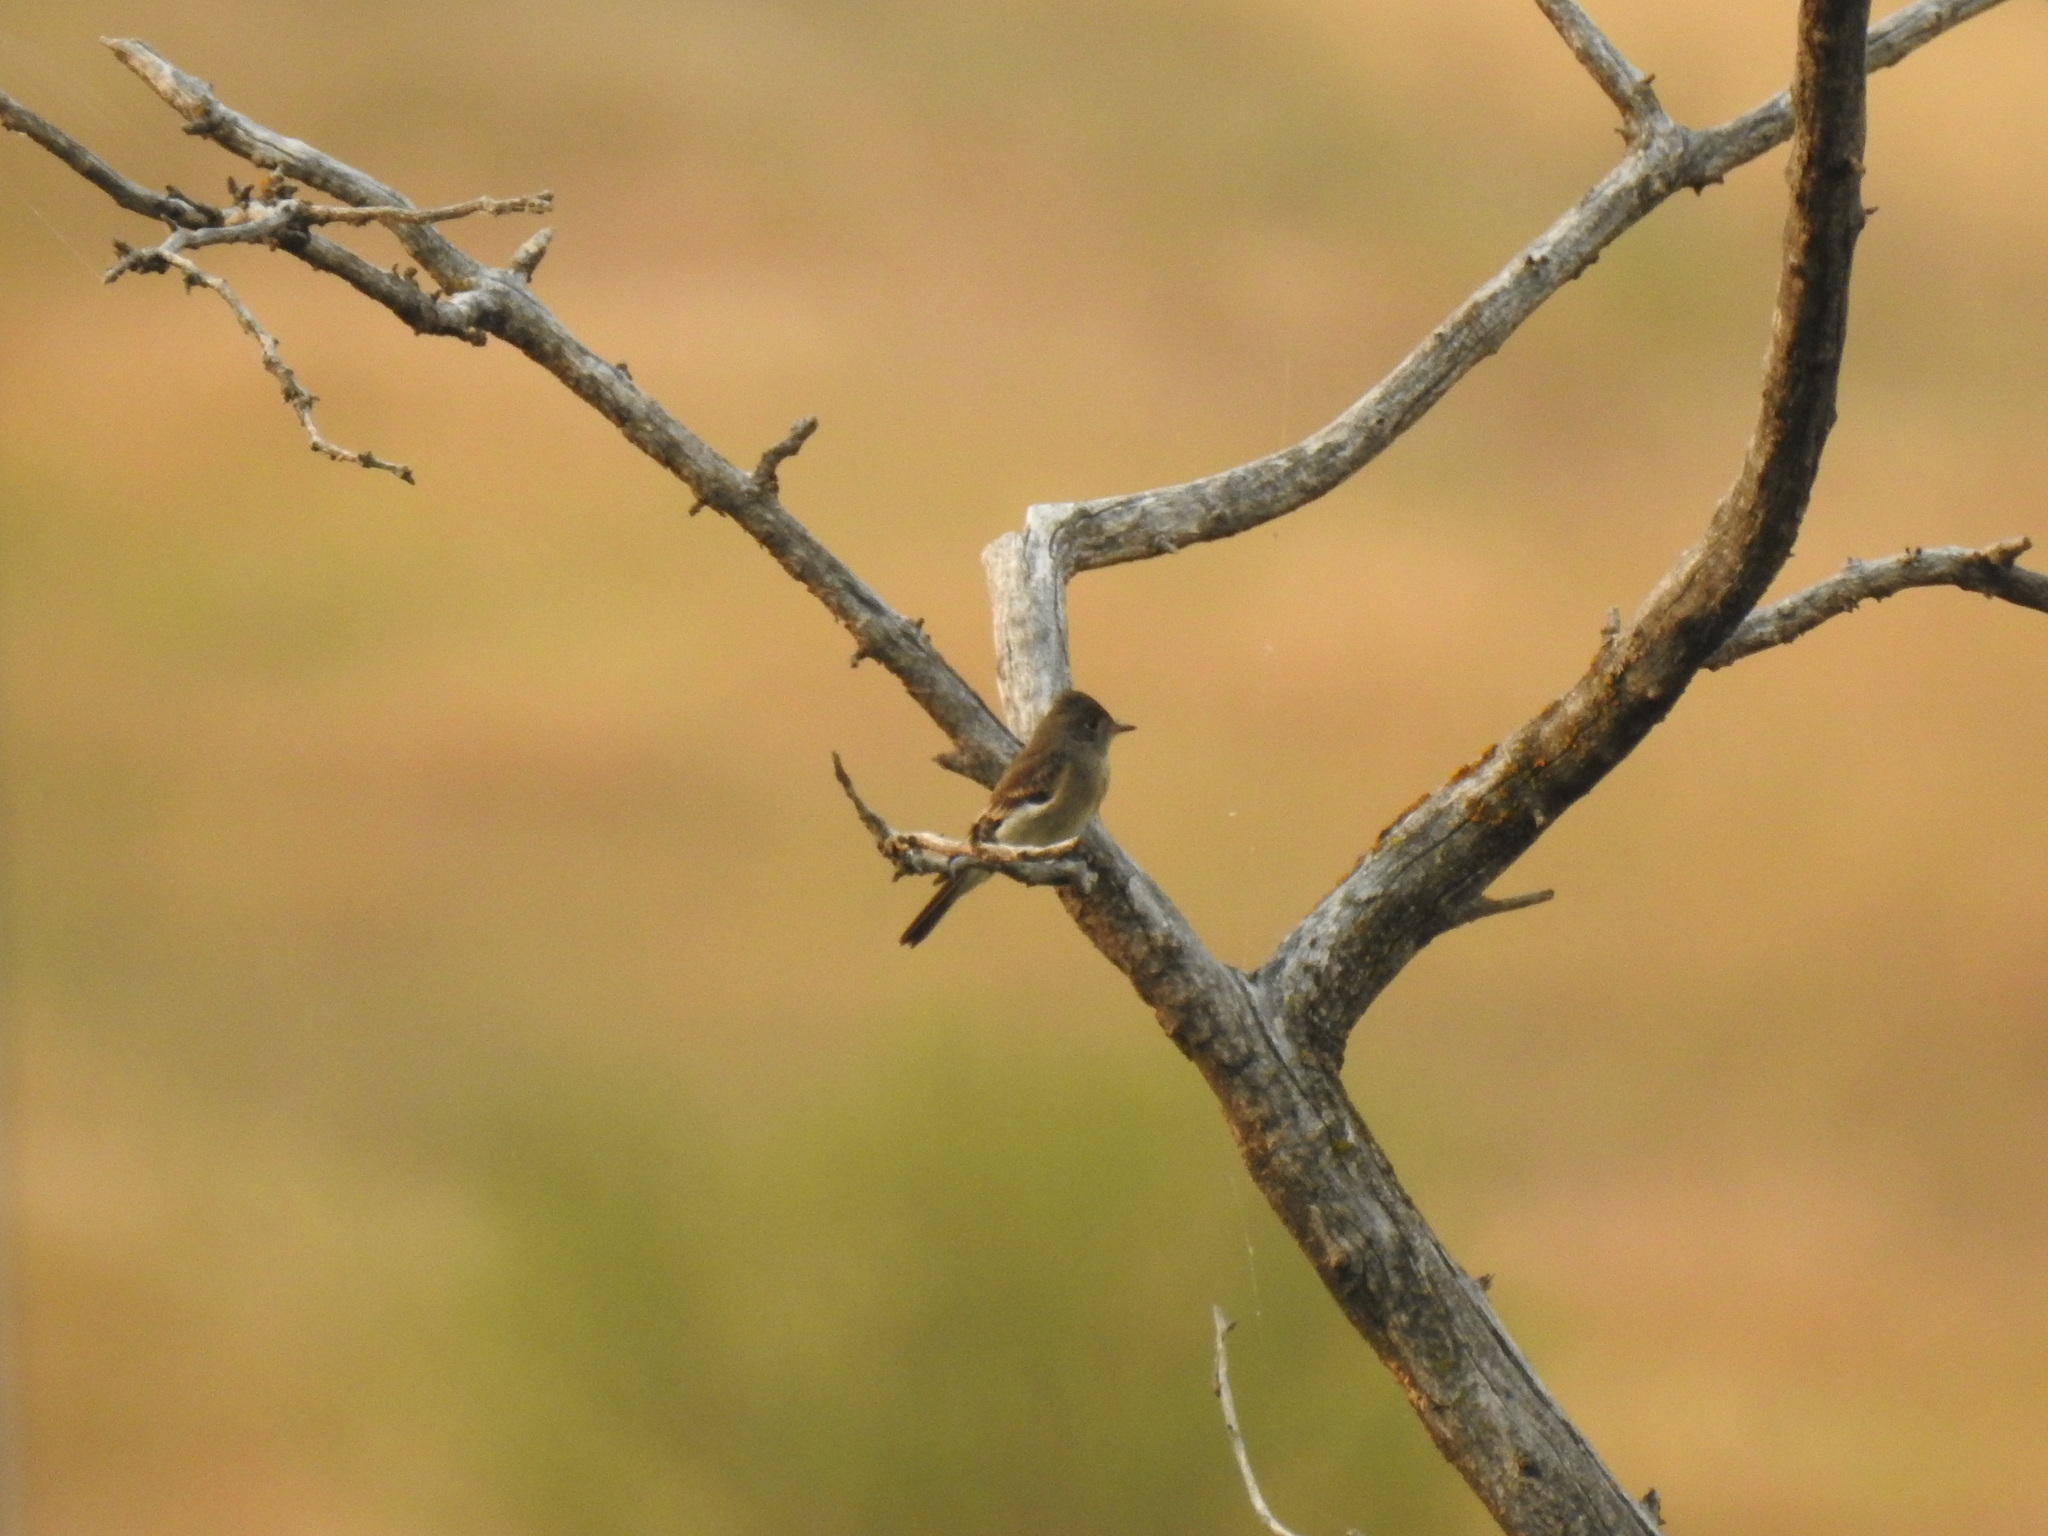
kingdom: Animalia
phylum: Chordata
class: Aves
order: Passeriformes
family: Tyrannidae
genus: Contopus
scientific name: Contopus sordidulus
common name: Western wood-pewee
